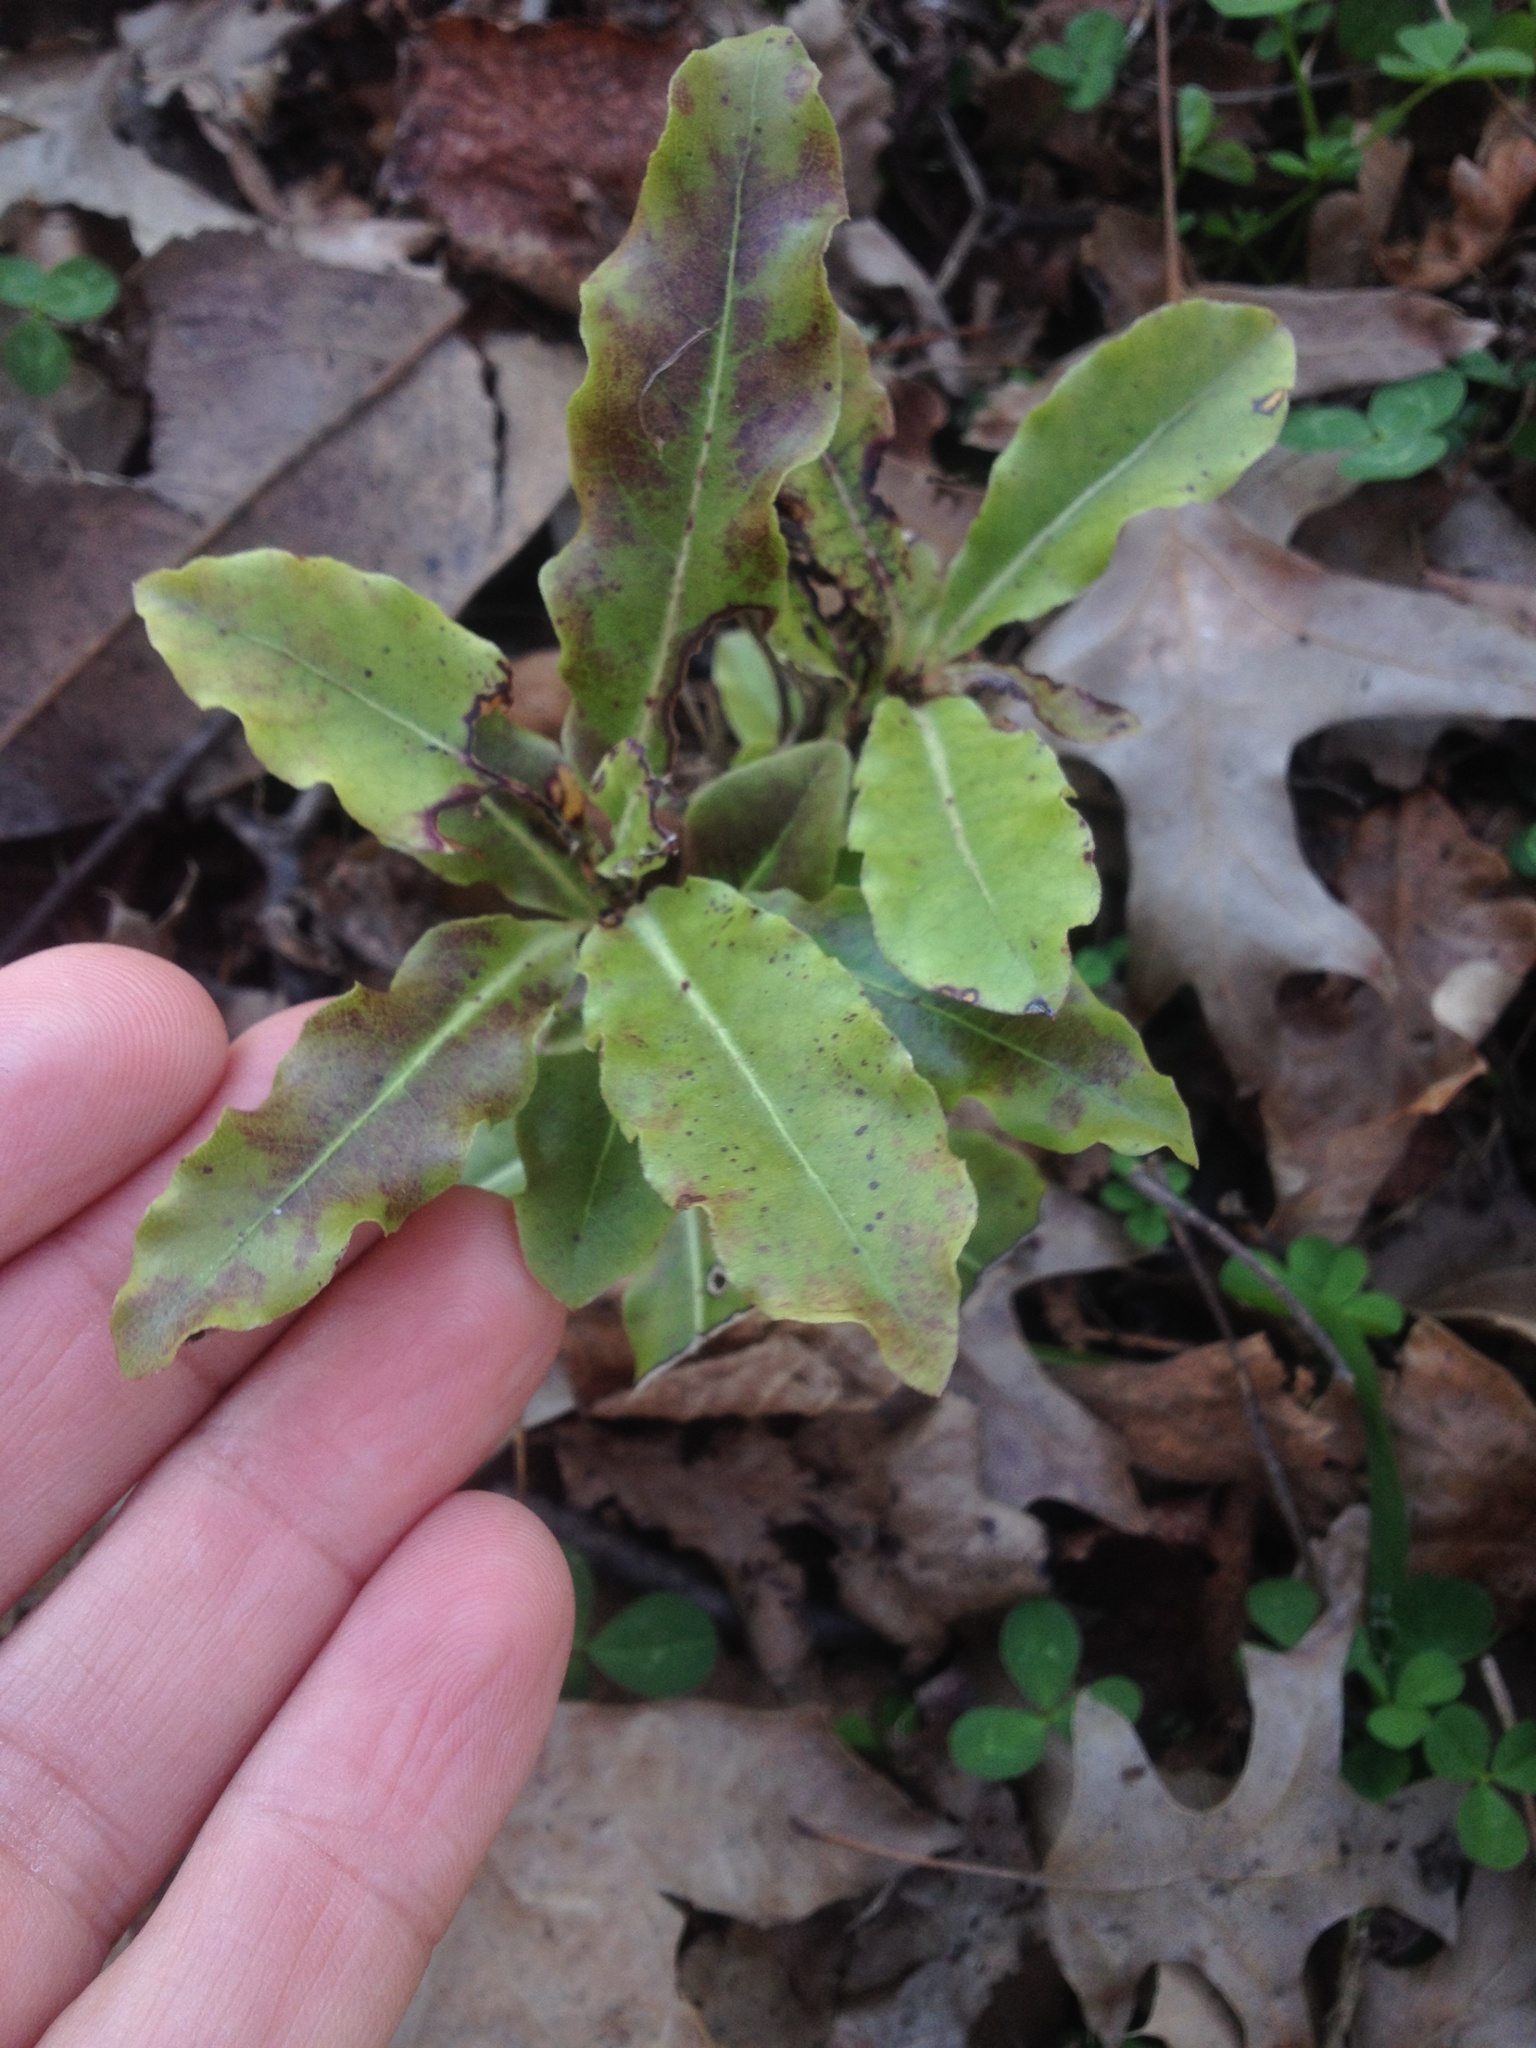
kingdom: Plantae
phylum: Tracheophyta
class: Magnoliopsida
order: Apiales
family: Pittosporaceae
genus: Pittosporum
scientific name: Pittosporum eugenioides
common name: Lemonwood
